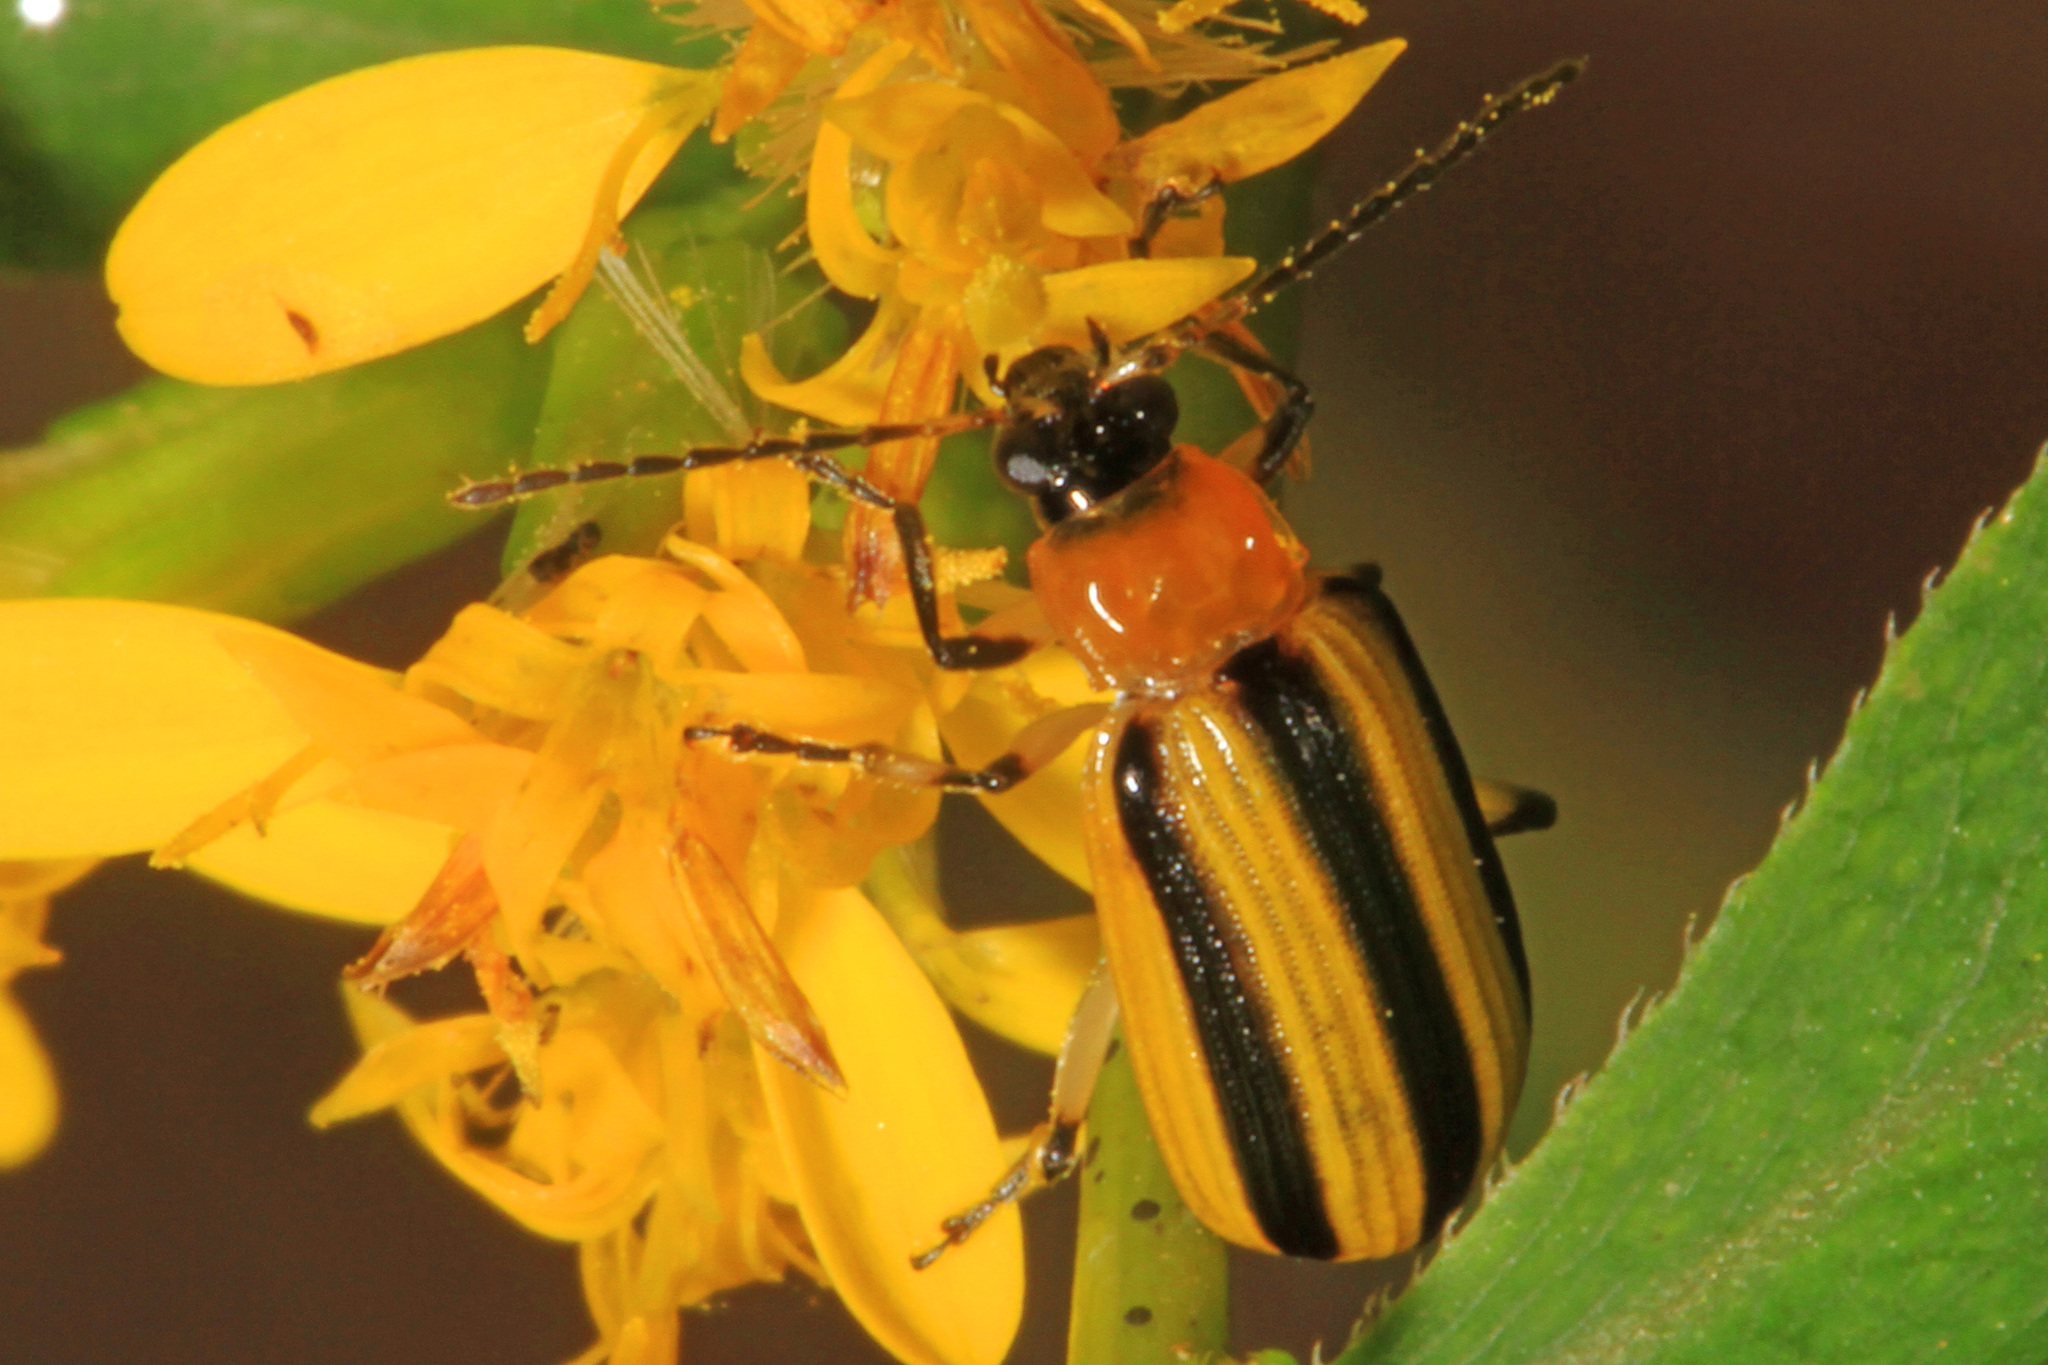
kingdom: Animalia
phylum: Arthropoda
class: Insecta
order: Coleoptera
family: Chrysomelidae
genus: Acalymma
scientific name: Acalymma vittatum
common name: Striped cucumber beetle
